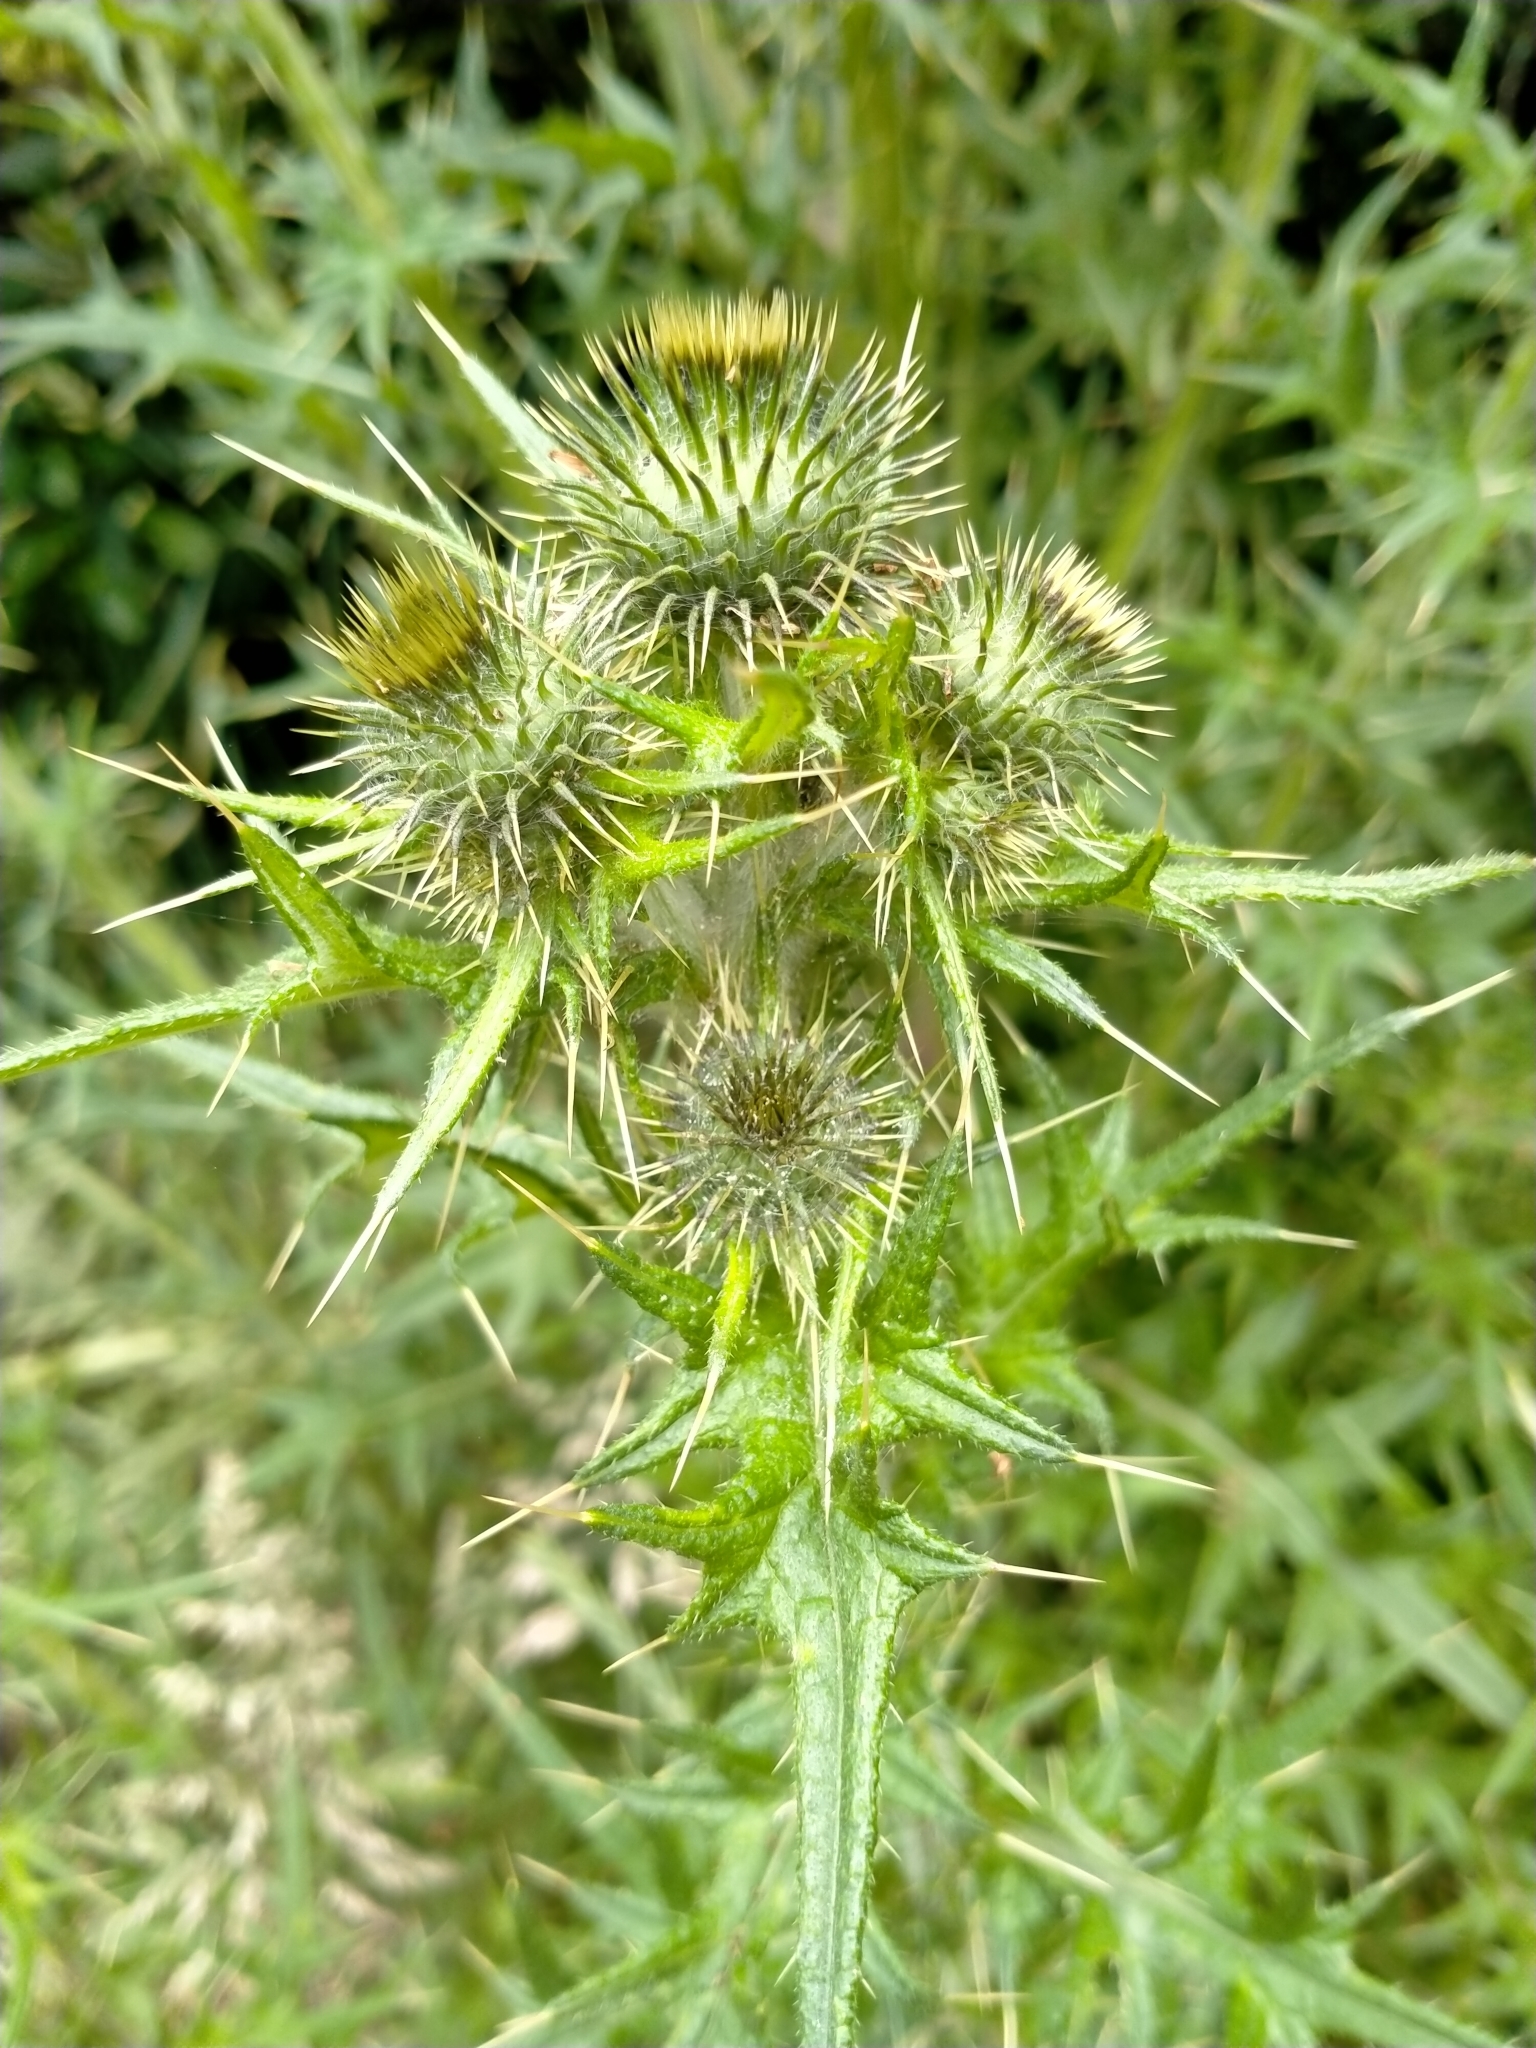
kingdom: Plantae
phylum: Tracheophyta
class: Magnoliopsida
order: Asterales
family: Asteraceae
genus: Cirsium
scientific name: Cirsium vulgare
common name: Bull thistle
